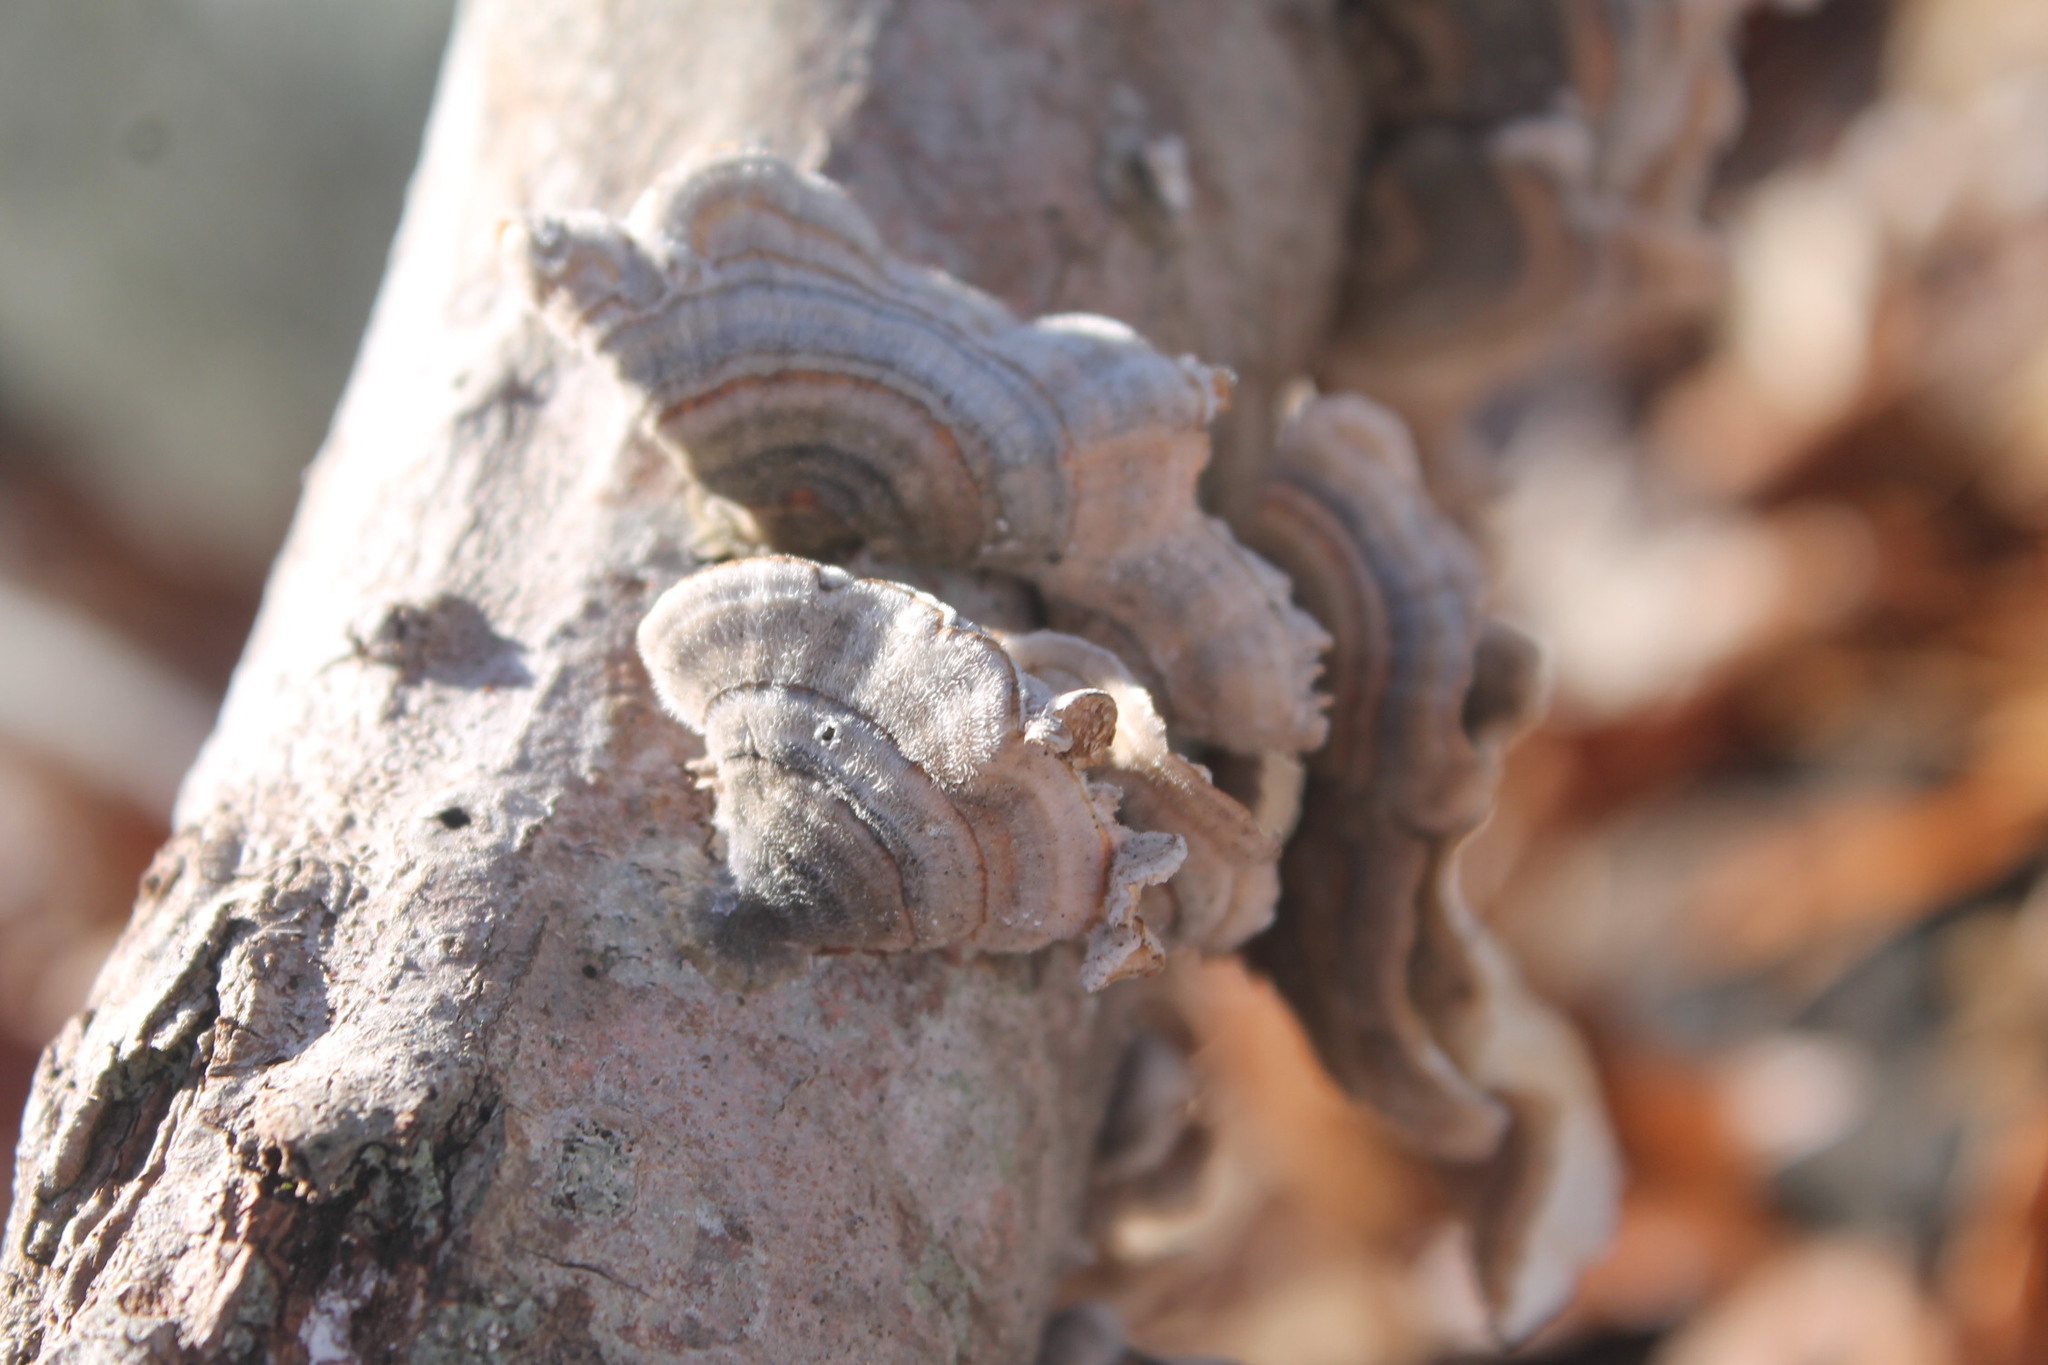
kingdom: Fungi
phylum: Basidiomycota
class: Agaricomycetes
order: Polyporales
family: Polyporaceae
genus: Trametes
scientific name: Trametes versicolor
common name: Turkeytail
